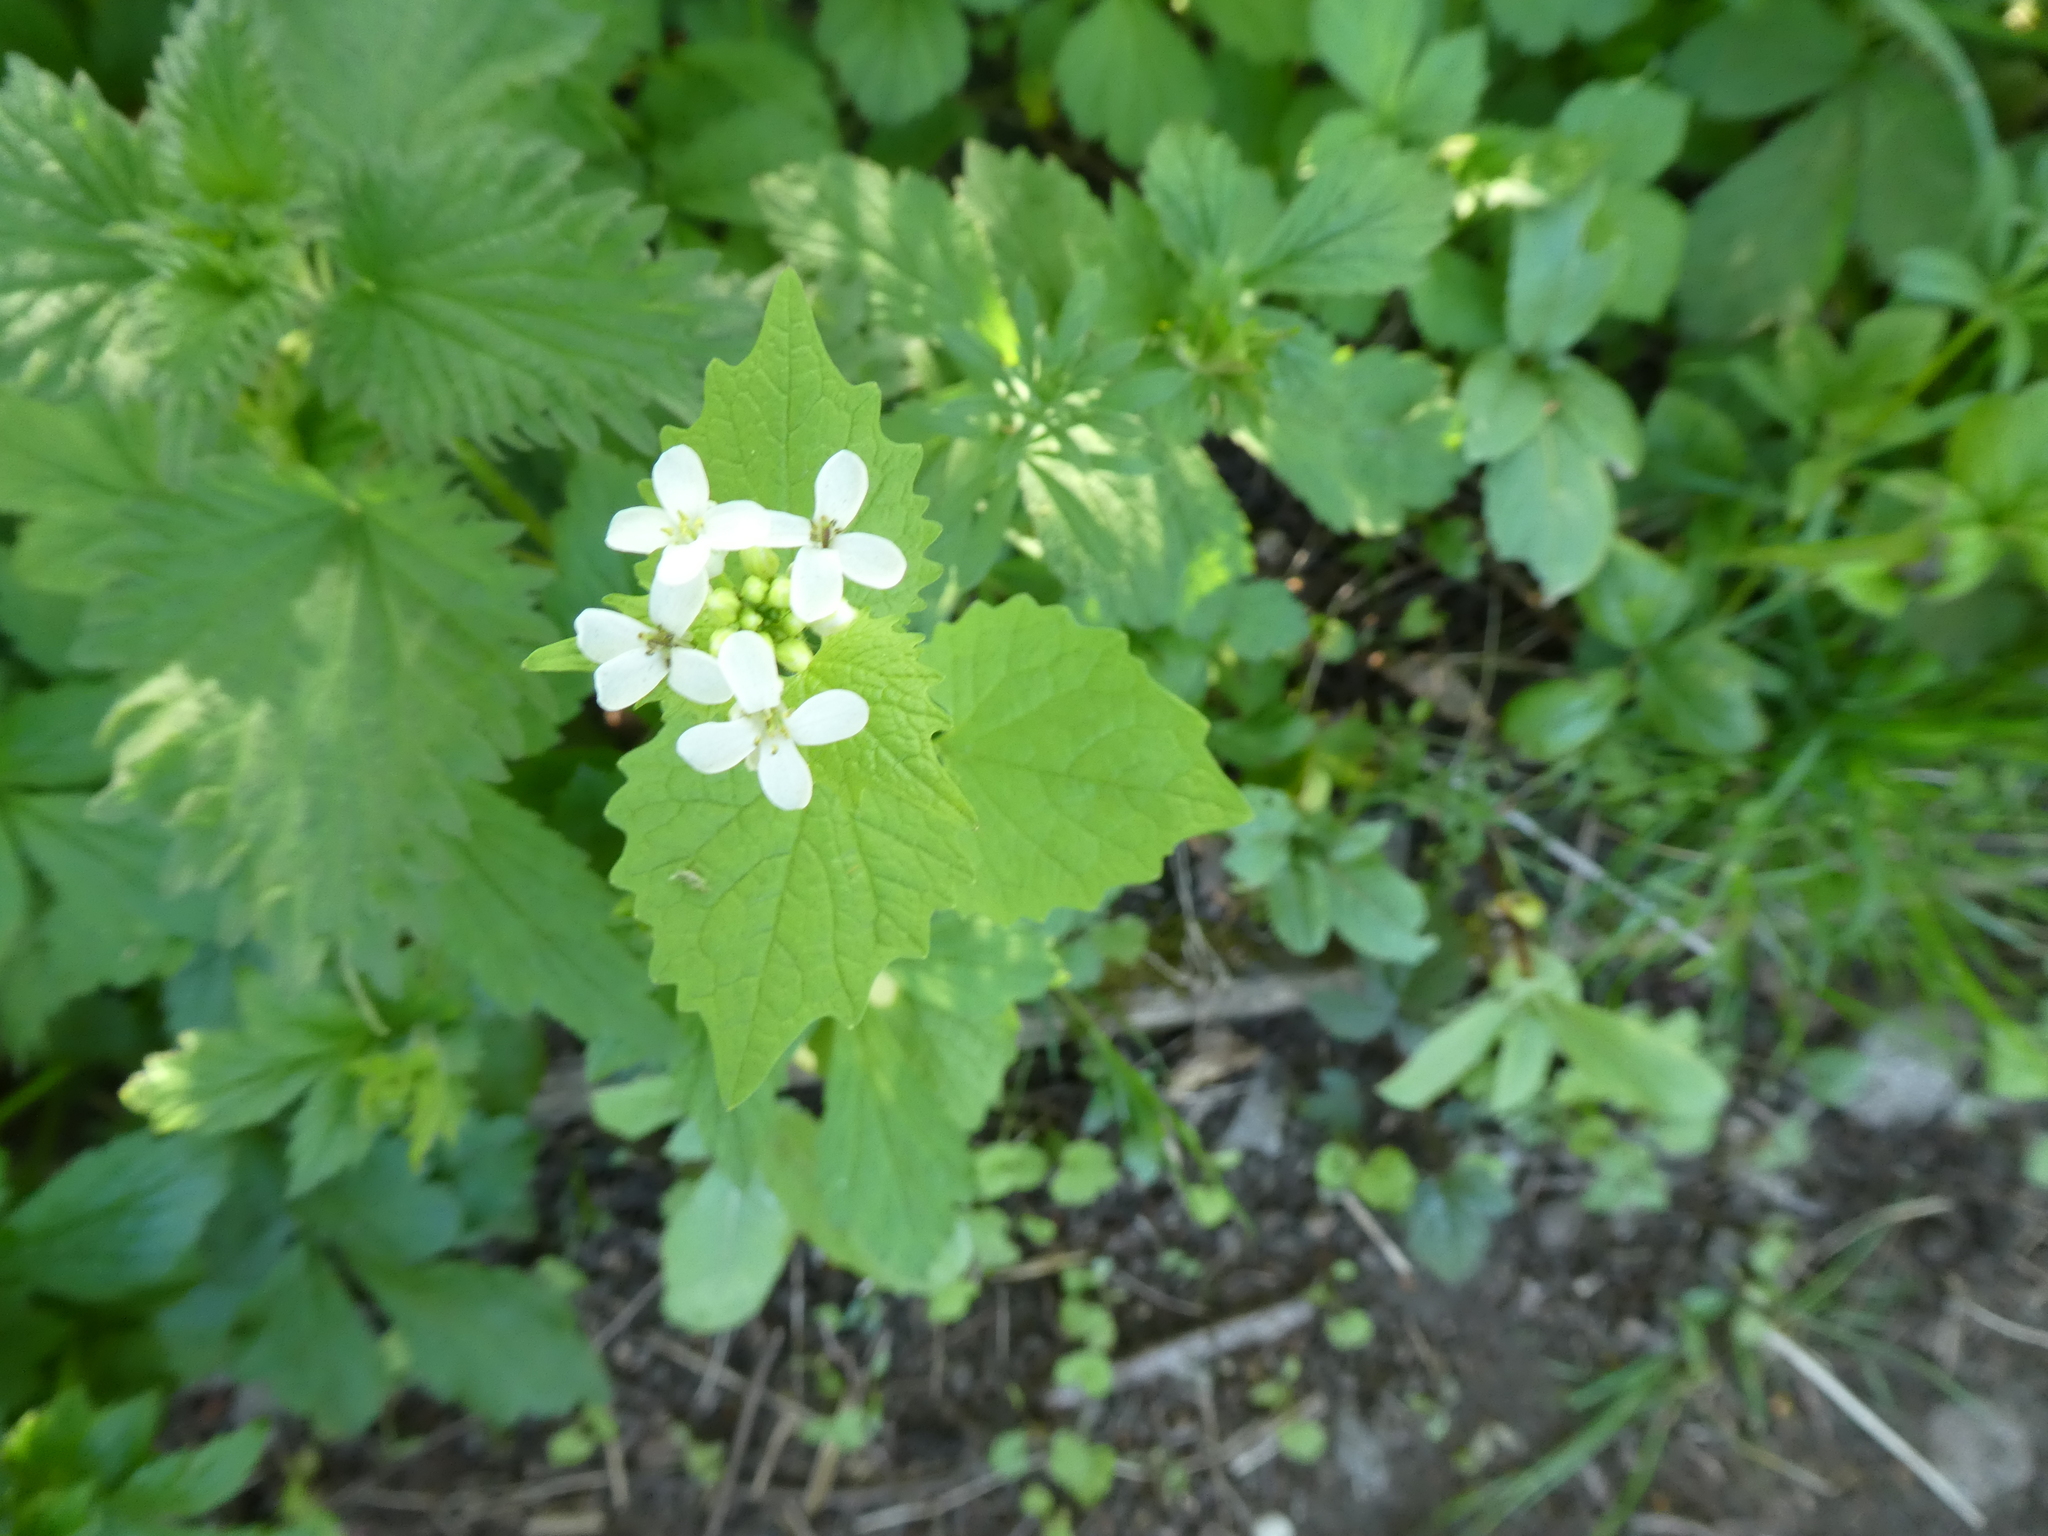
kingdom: Plantae
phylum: Tracheophyta
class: Magnoliopsida
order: Brassicales
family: Brassicaceae
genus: Alliaria
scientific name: Alliaria petiolata
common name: Garlic mustard
